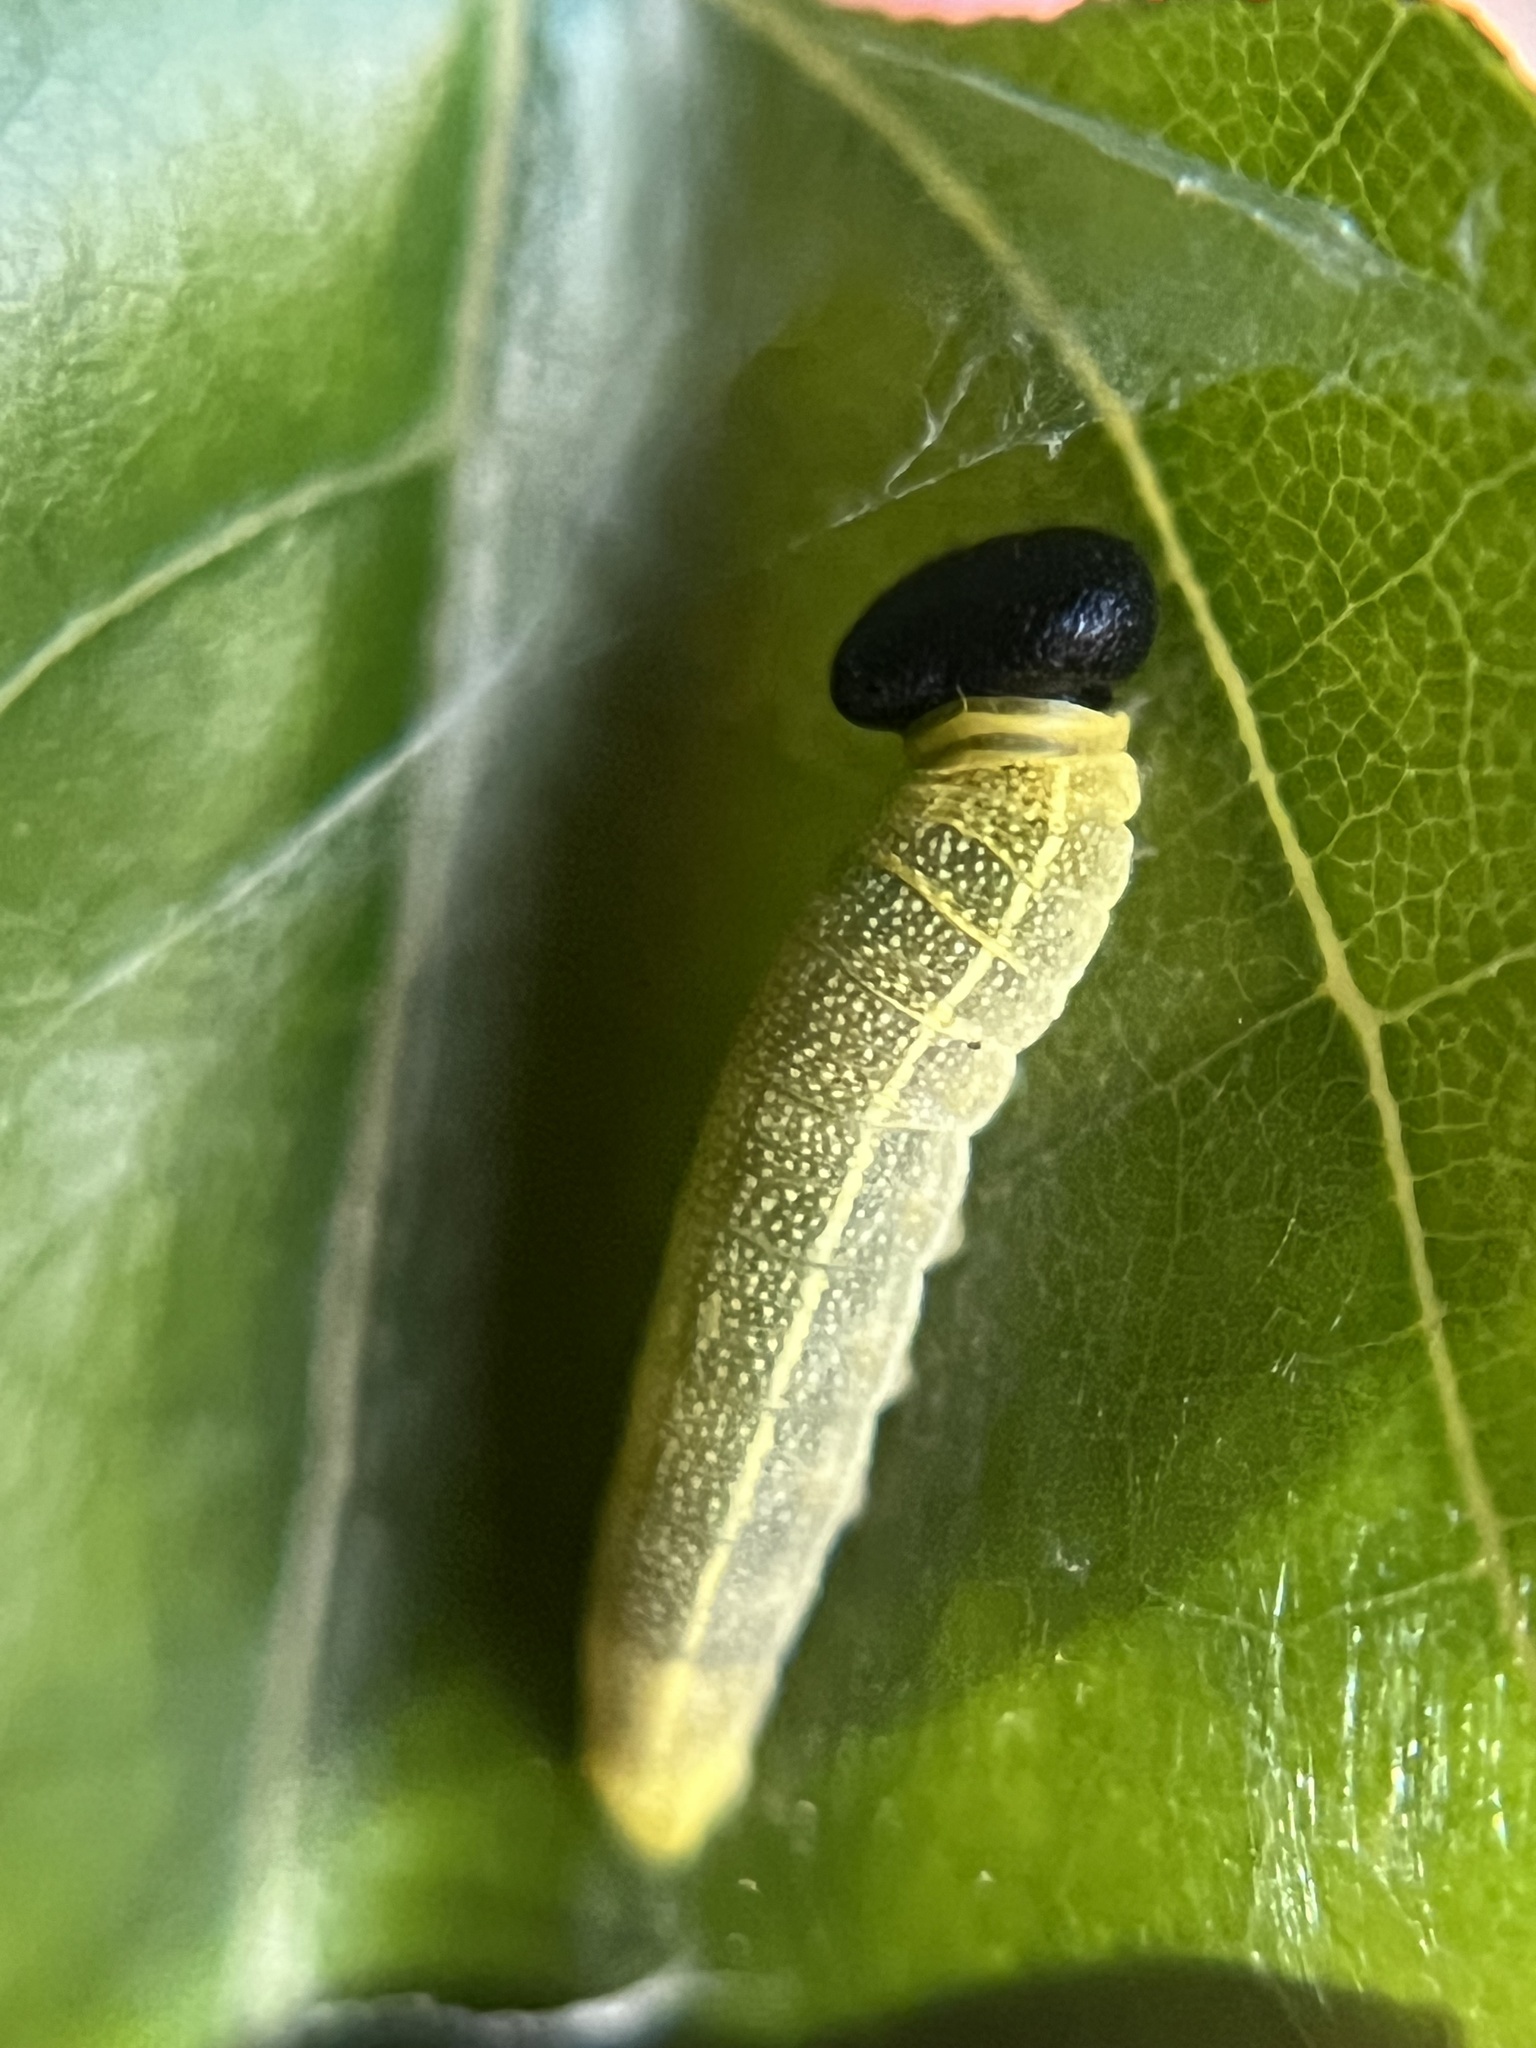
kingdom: Animalia
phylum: Arthropoda
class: Insecta
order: Lepidoptera
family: Hesperiidae
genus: Polygonus
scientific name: Polygonus leo
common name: Hammoch skipper
